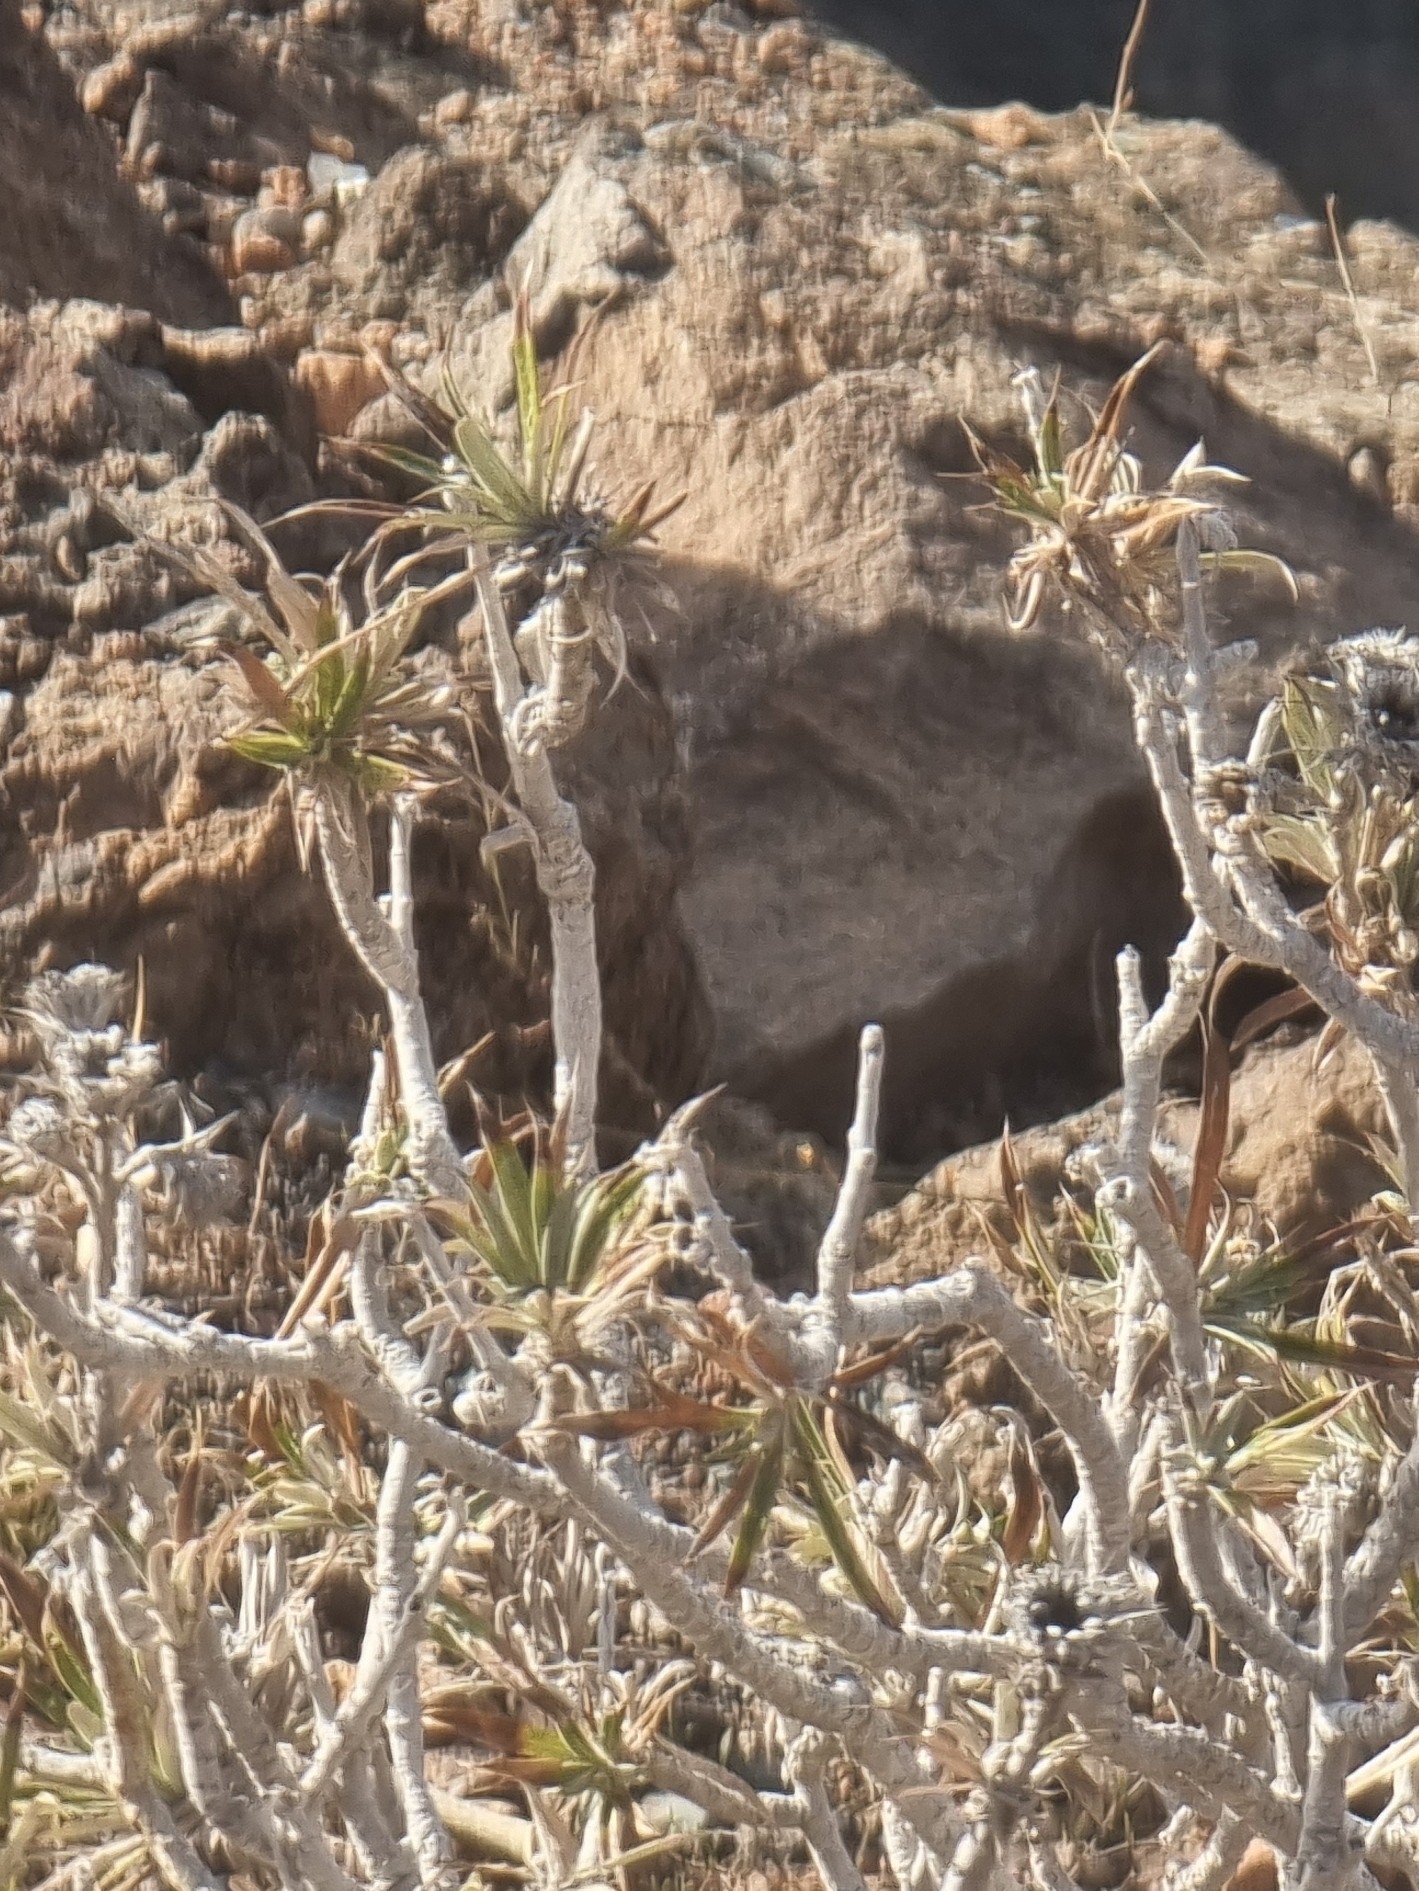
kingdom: Plantae
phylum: Tracheophyta
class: Magnoliopsida
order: Asterales
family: Asteraceae
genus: Carlina
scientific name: Carlina canariensis
